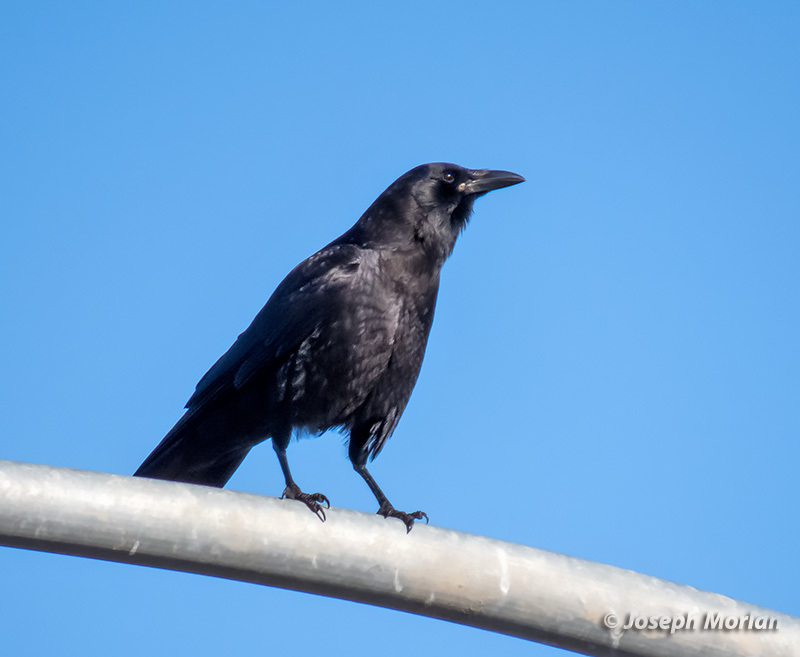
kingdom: Animalia
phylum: Chordata
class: Aves
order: Passeriformes
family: Corvidae
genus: Corvus
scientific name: Corvus brachyrhynchos
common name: American crow
